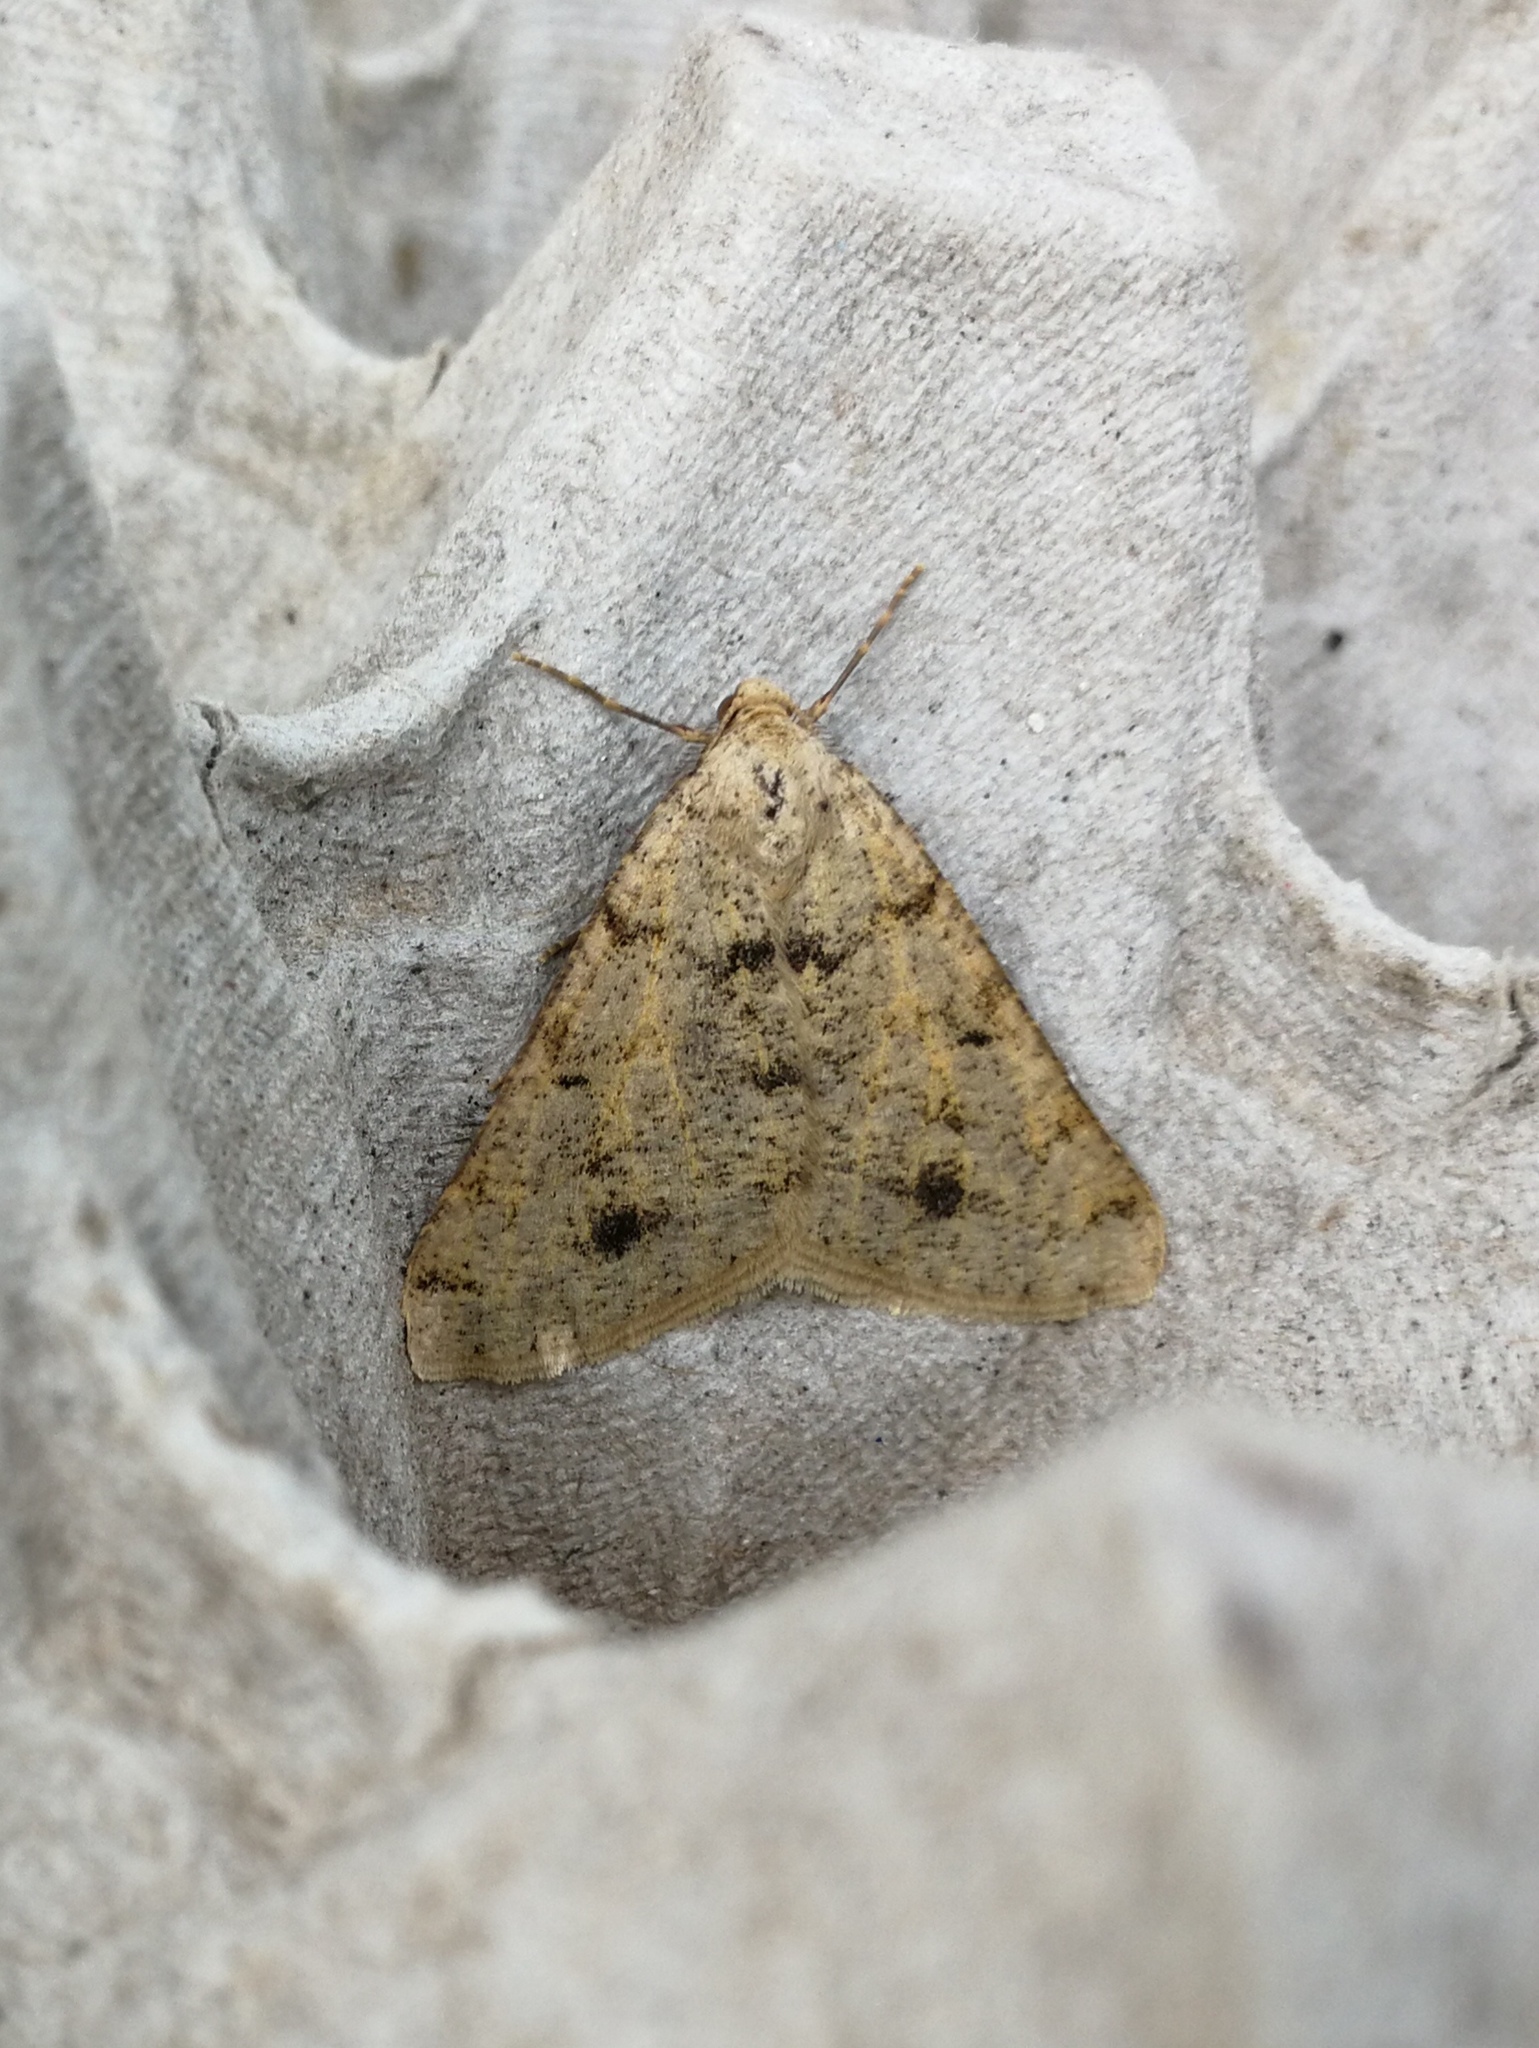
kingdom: Animalia
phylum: Arthropoda
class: Insecta
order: Lepidoptera
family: Geometridae
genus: Isturgia
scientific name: Isturgia miniosaria
